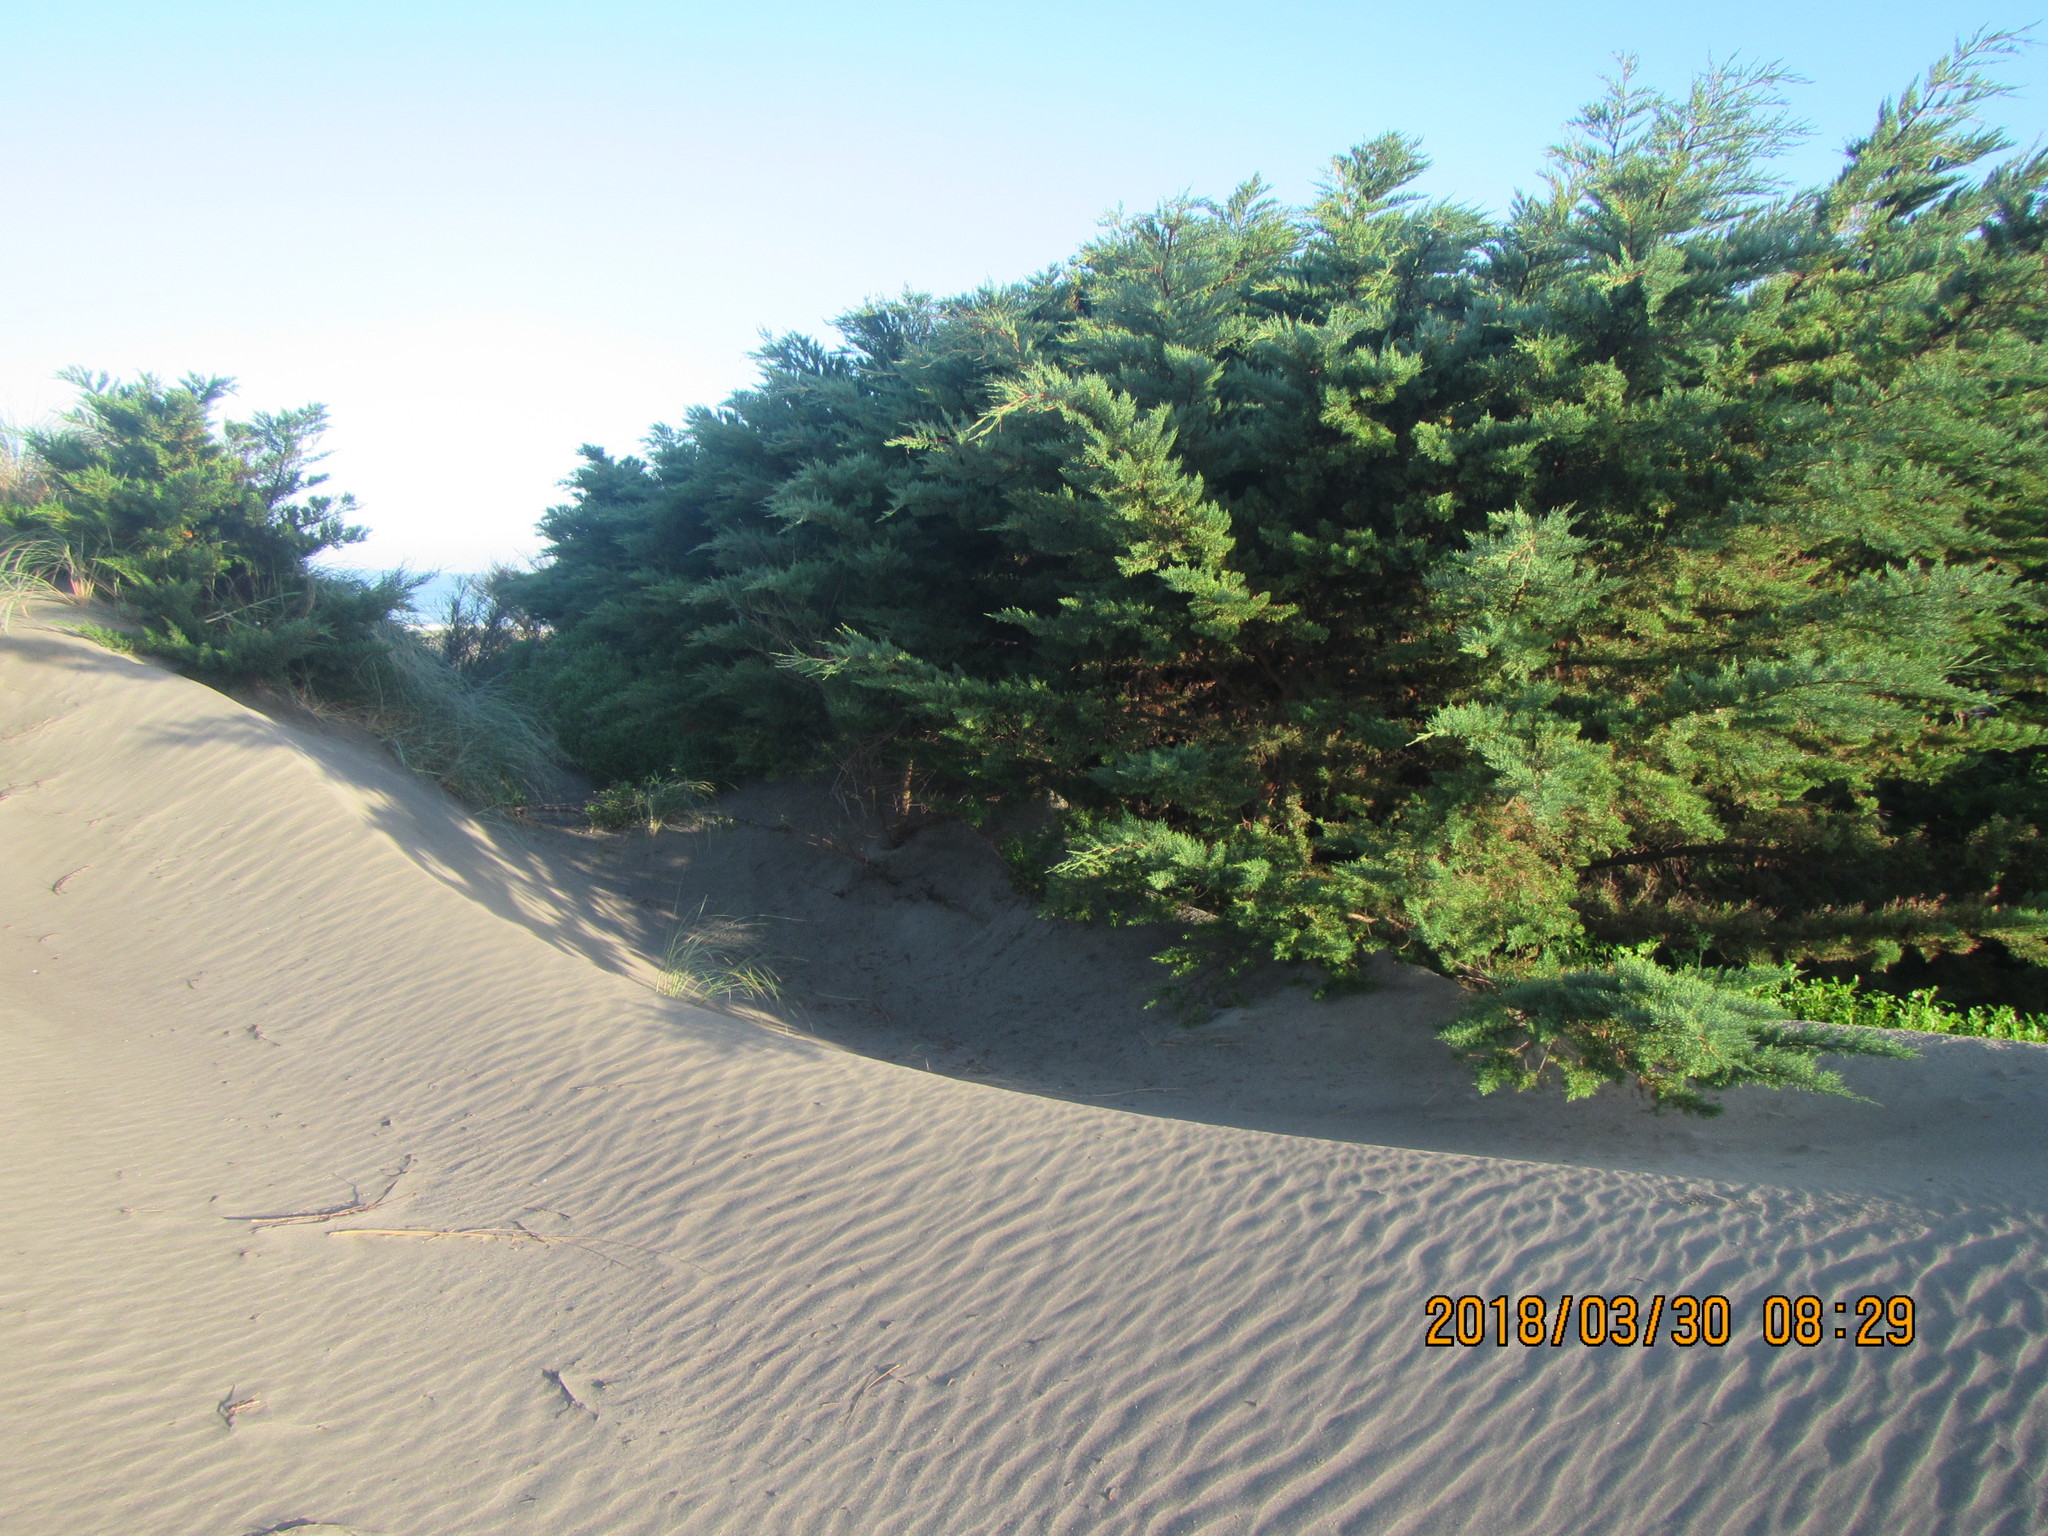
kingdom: Plantae
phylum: Tracheophyta
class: Pinopsida
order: Pinales
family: Cupressaceae
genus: Cupressus
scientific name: Cupressus macrocarpa
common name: Monterey cypress
